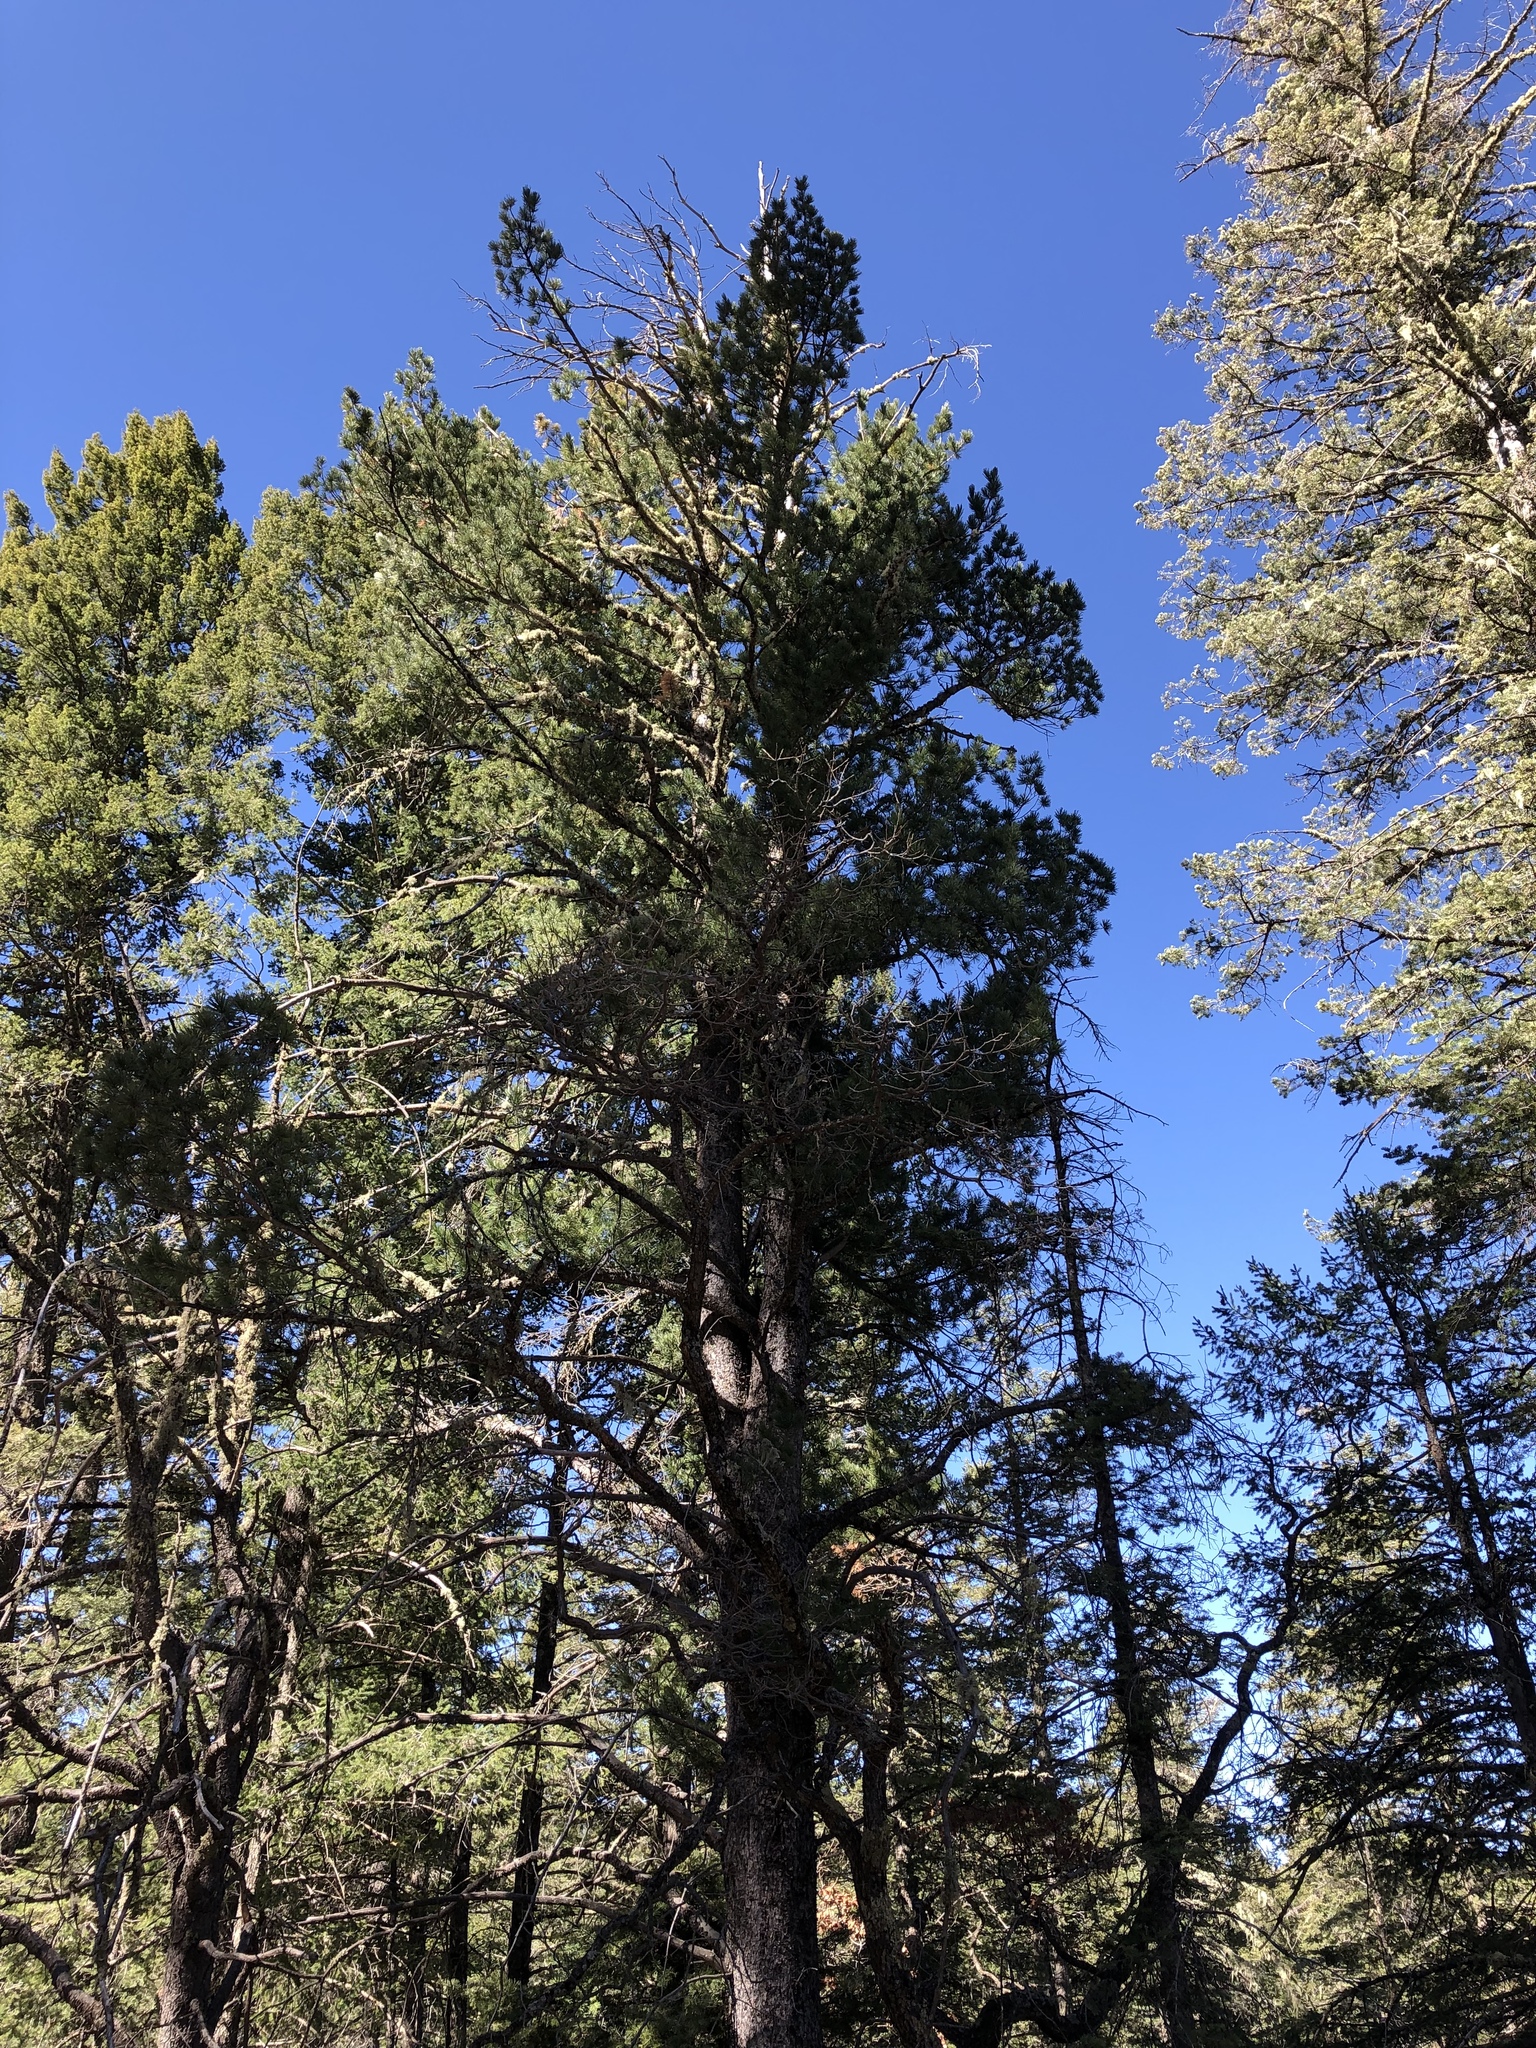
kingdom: Plantae
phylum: Tracheophyta
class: Pinopsida
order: Pinales
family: Pinaceae
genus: Pinus
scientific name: Pinus strobiformis
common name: Southwestern white pine
